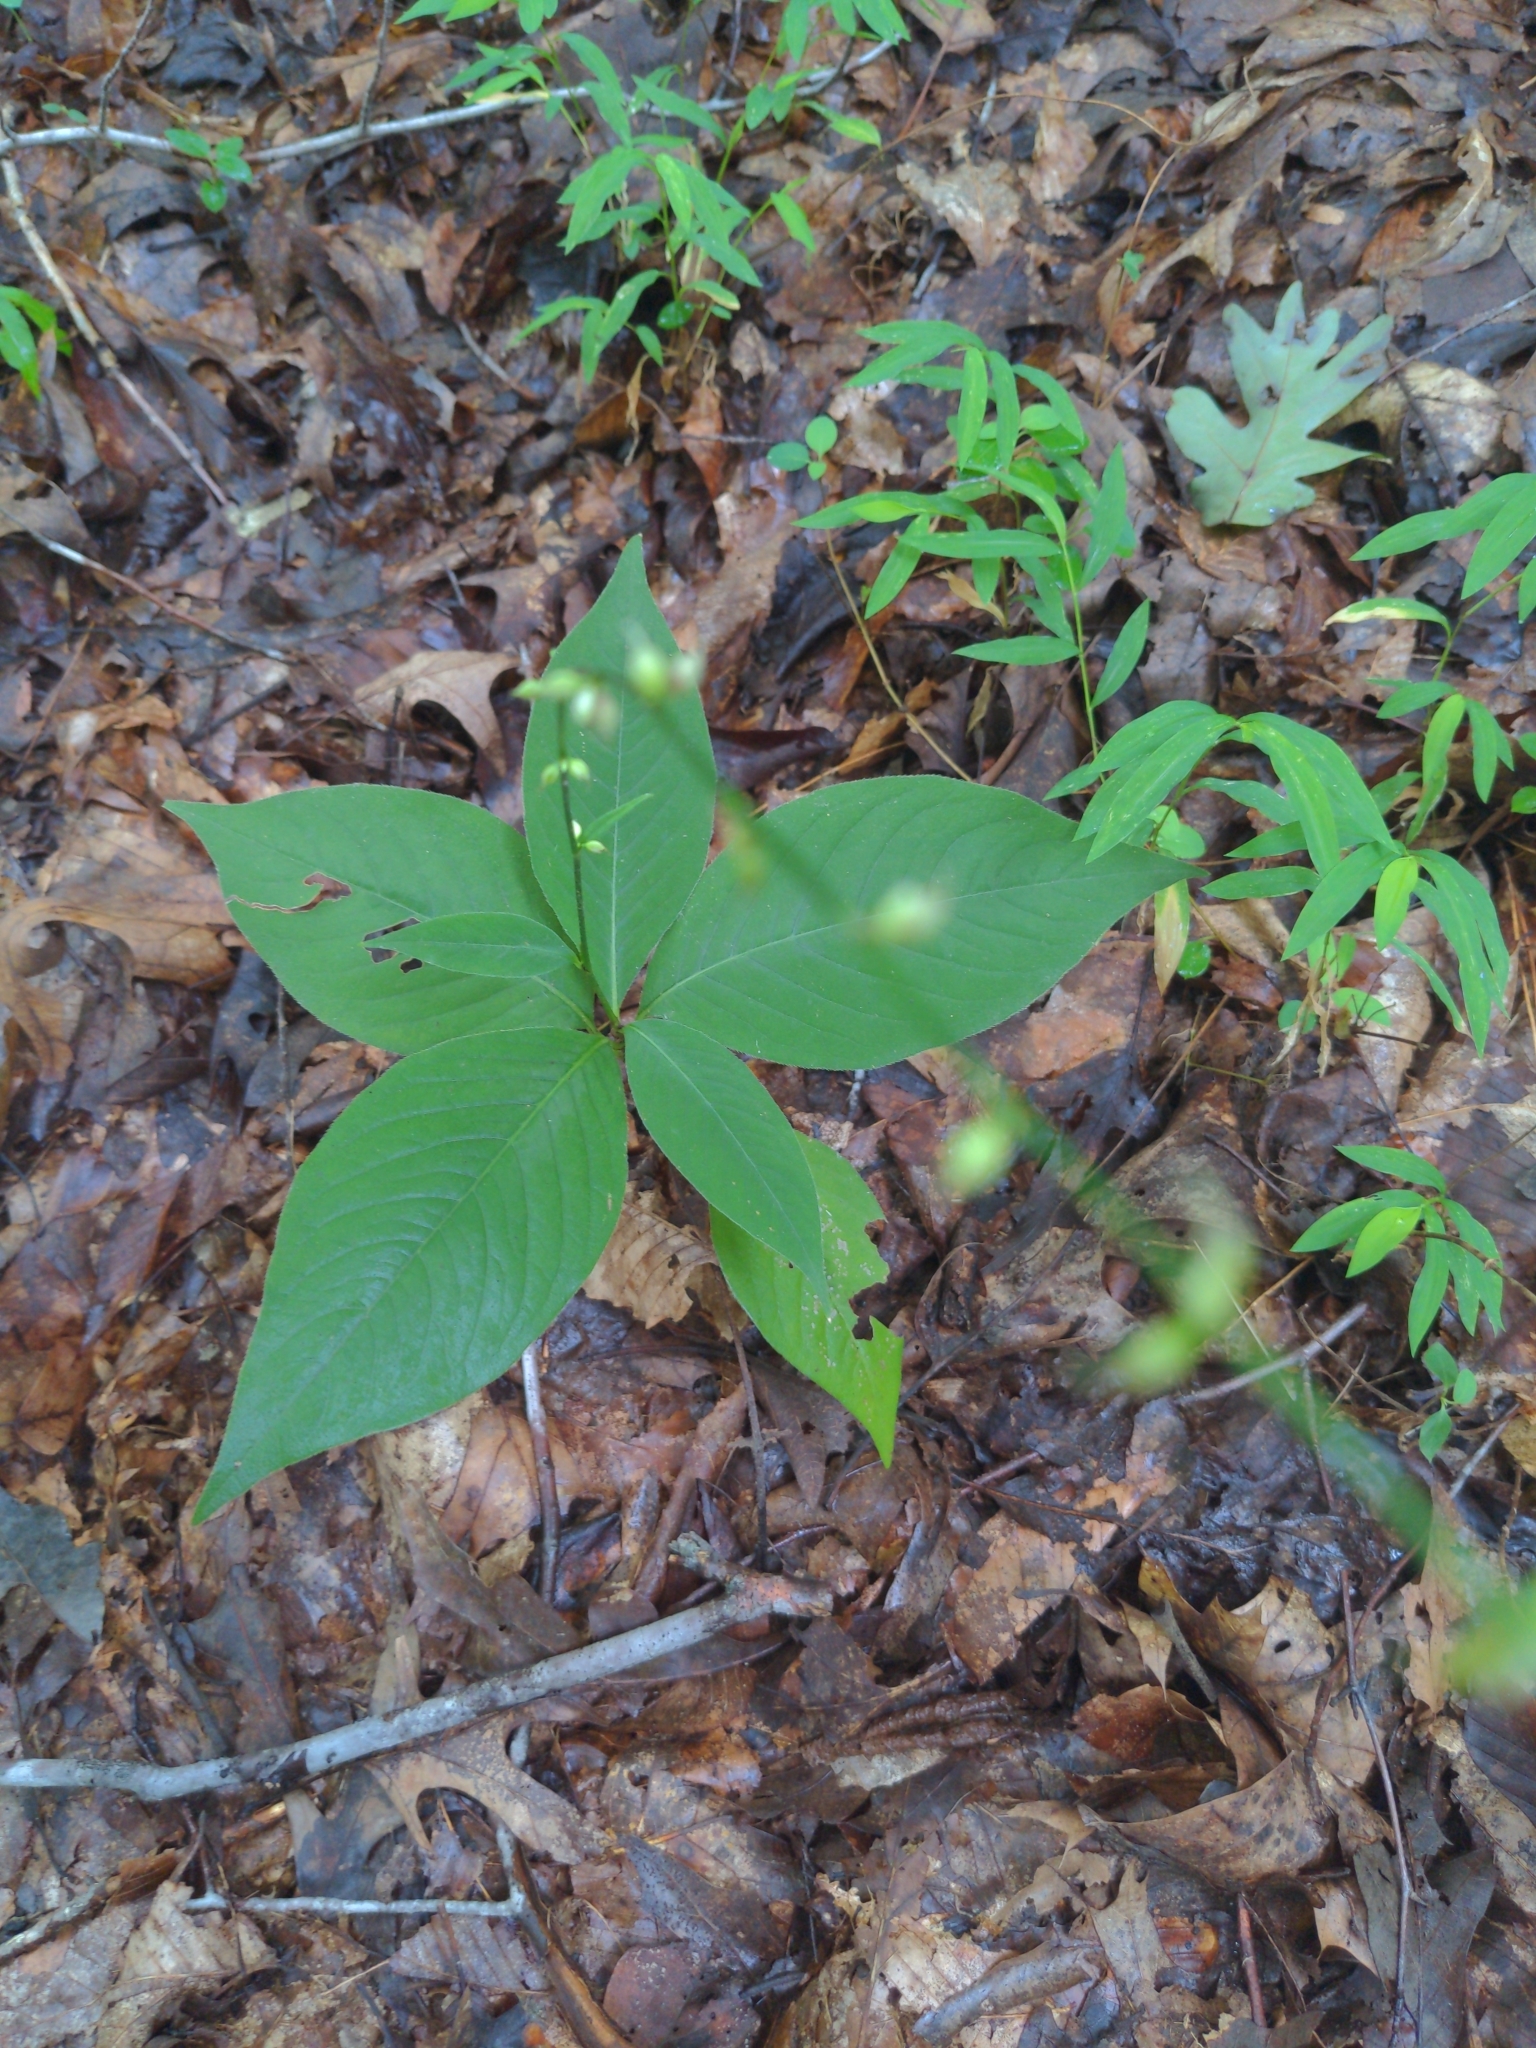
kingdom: Plantae
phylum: Tracheophyta
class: Magnoliopsida
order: Caryophyllales
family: Polygonaceae
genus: Persicaria
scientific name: Persicaria virginiana
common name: Jumpseed
